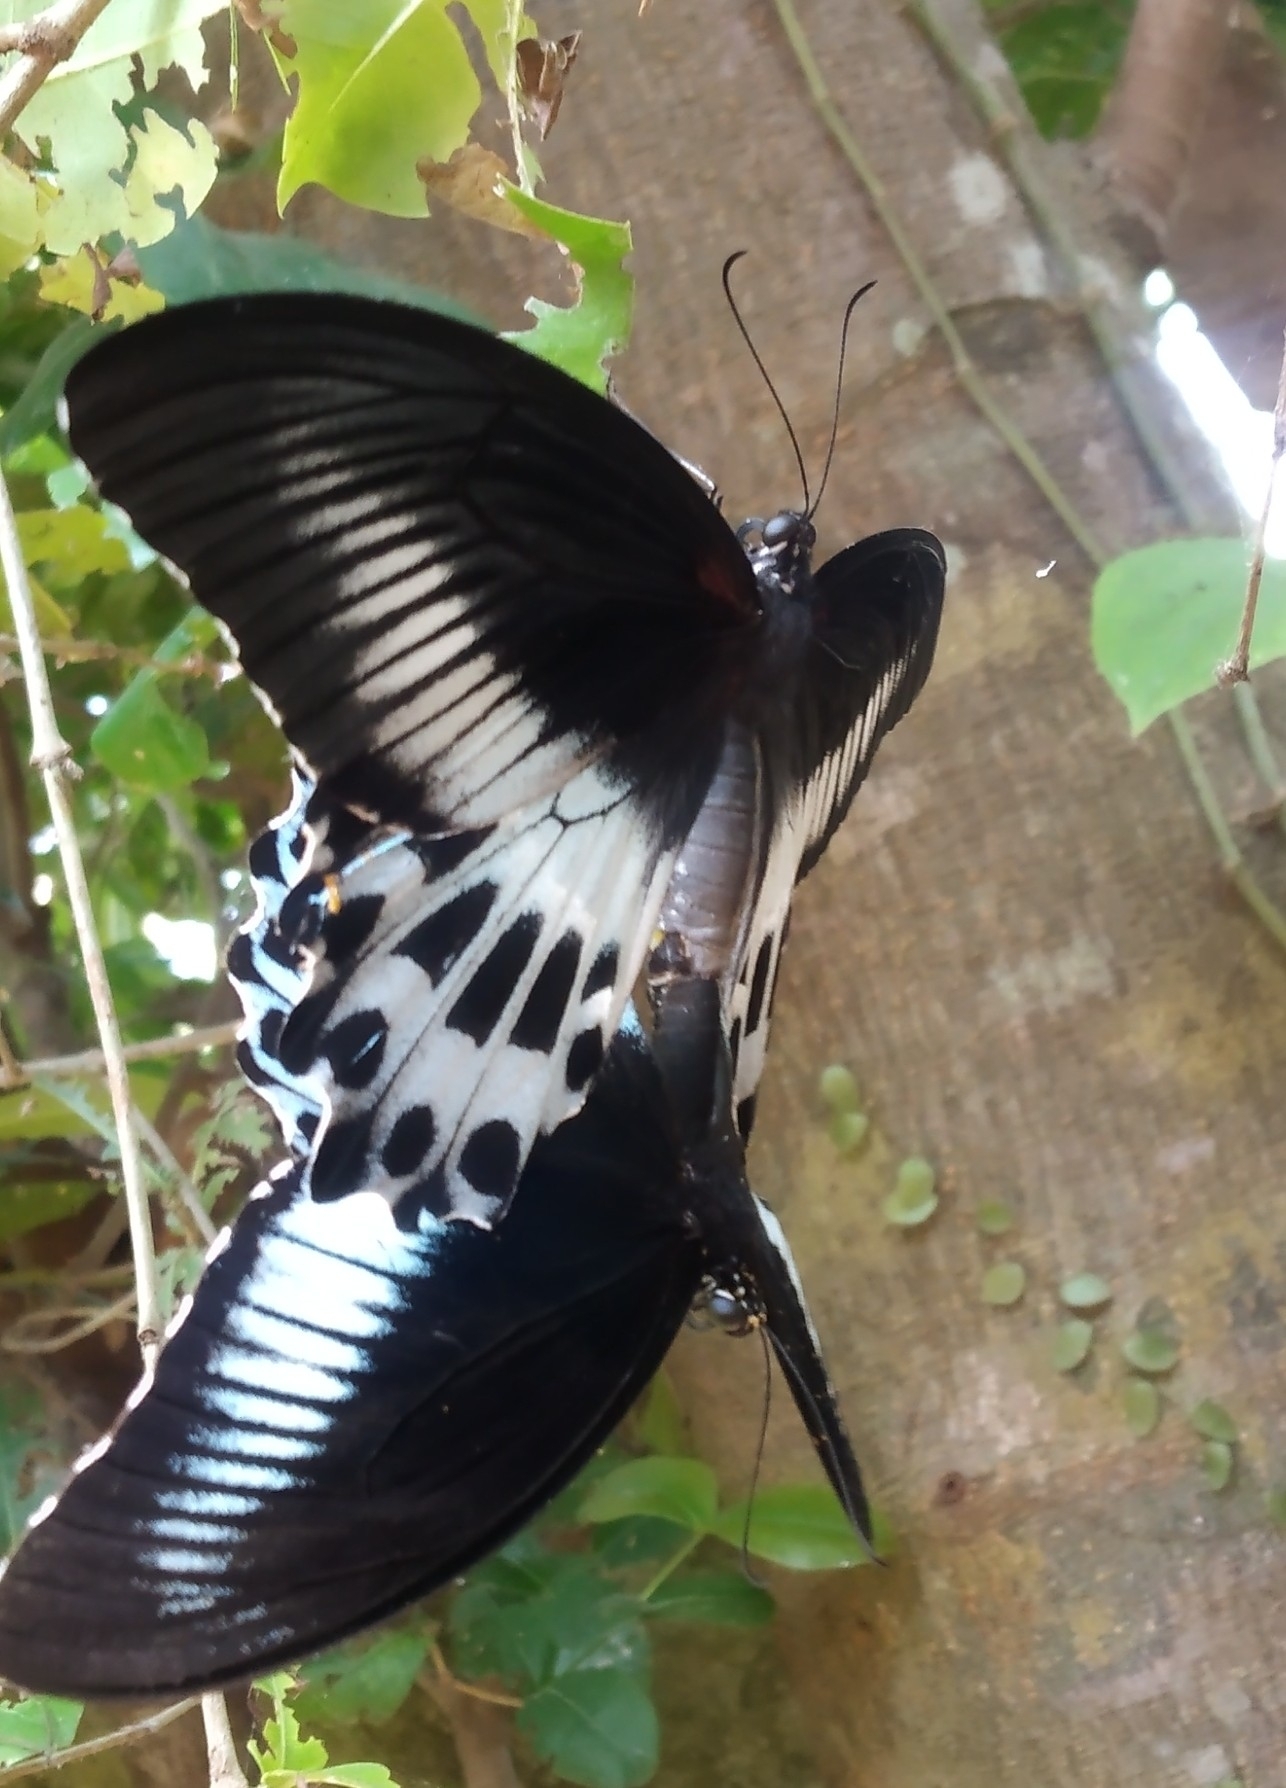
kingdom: Animalia
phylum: Arthropoda
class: Insecta
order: Lepidoptera
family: Papilionidae
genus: Papilio
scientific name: Papilio memnon
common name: Great mormon
